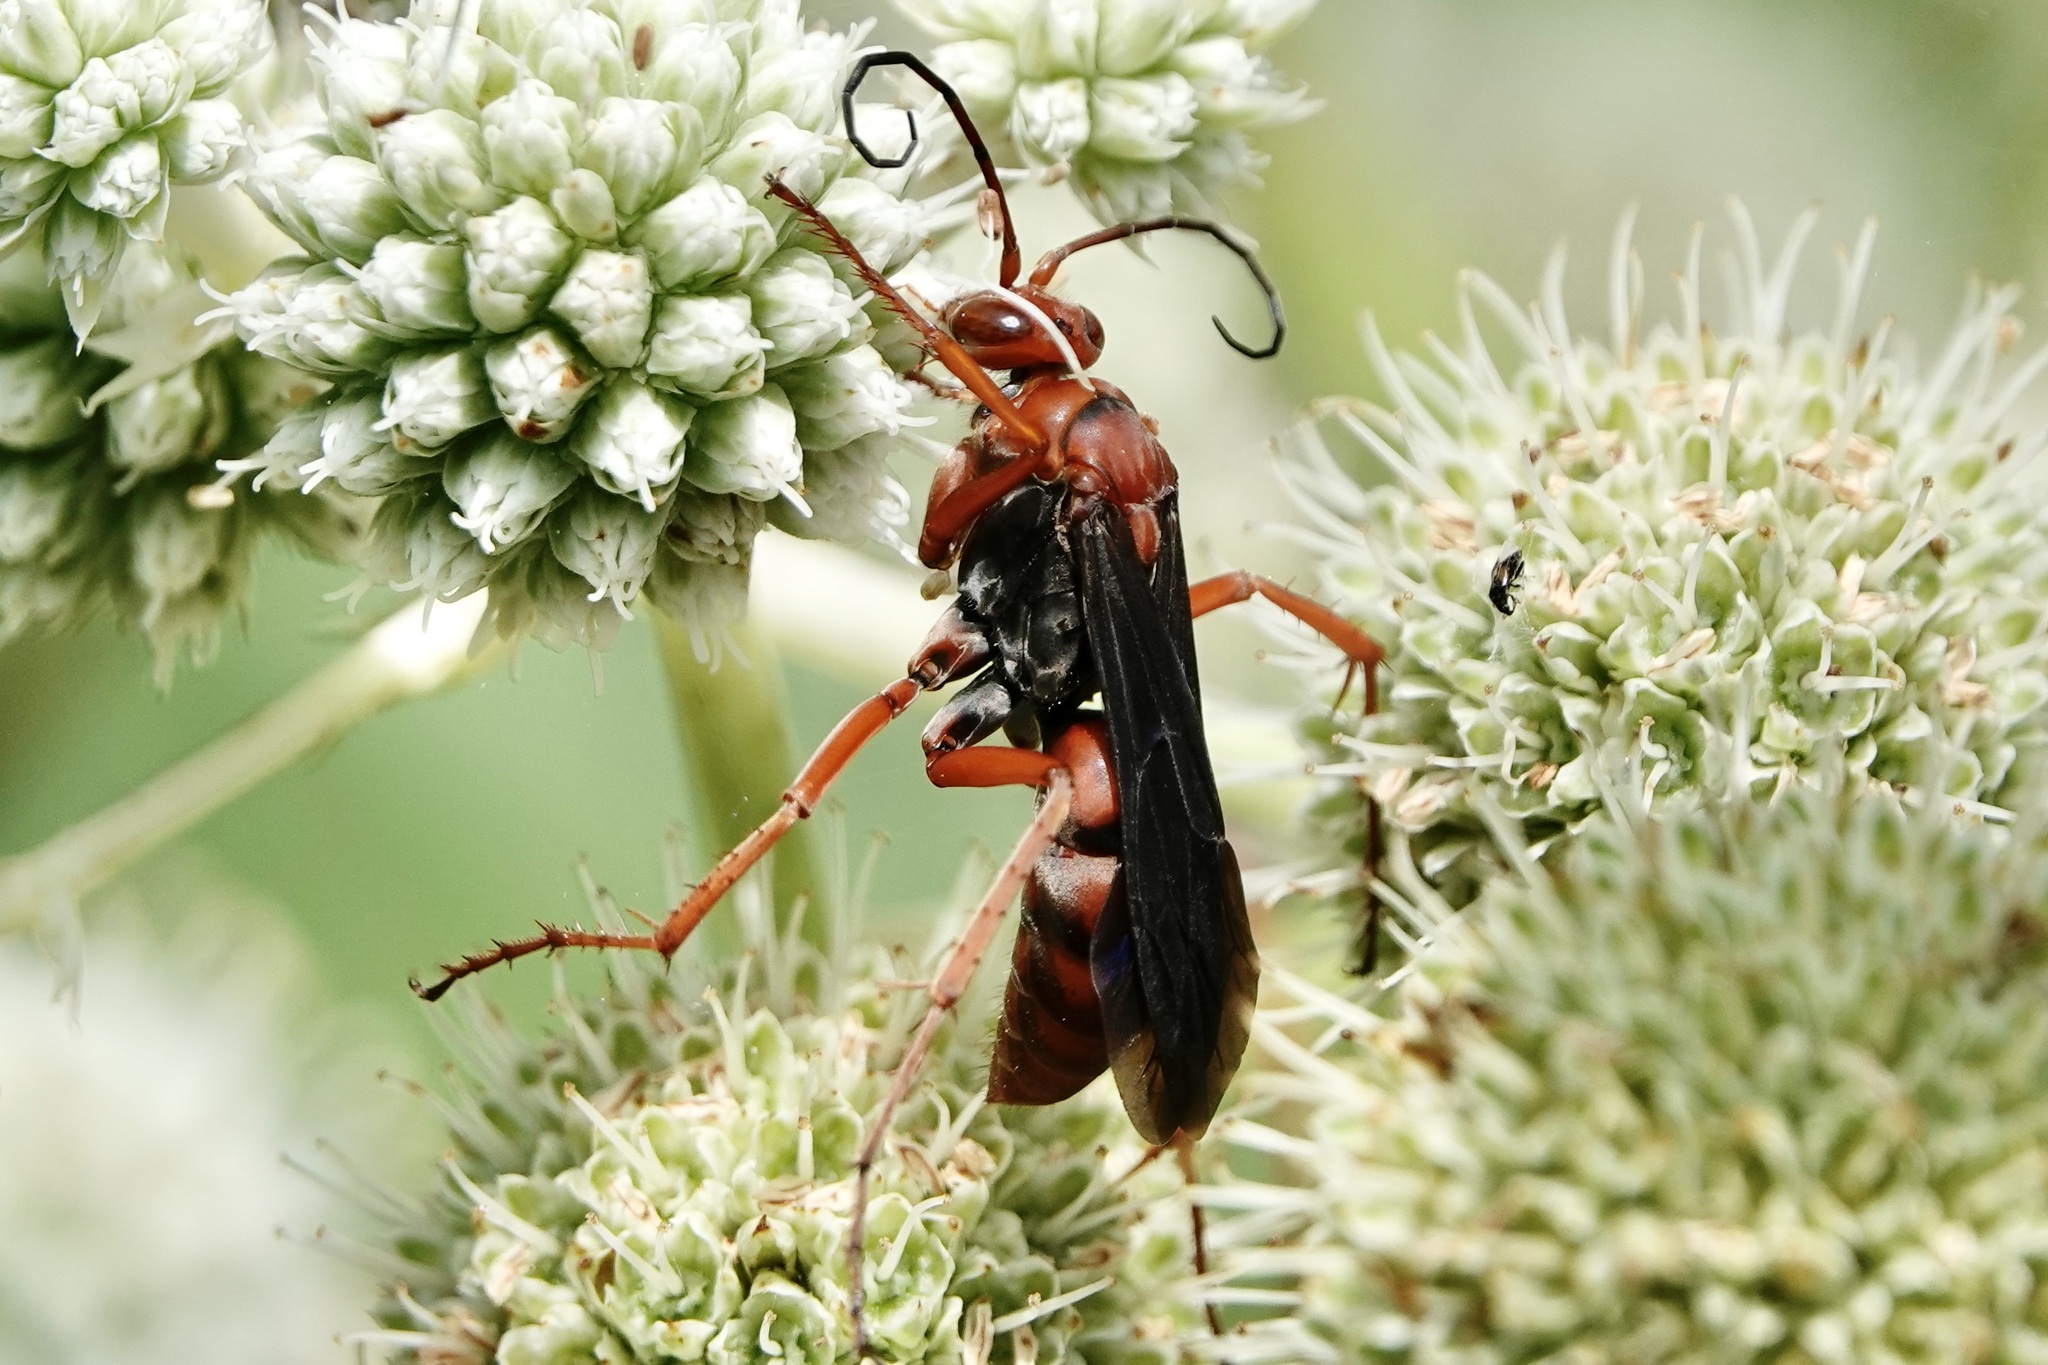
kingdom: Animalia
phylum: Arthropoda
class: Insecta
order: Hymenoptera
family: Pompilidae
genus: Tachypompilus
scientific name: Tachypompilus ferrugineus
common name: Rusty spider wasp
